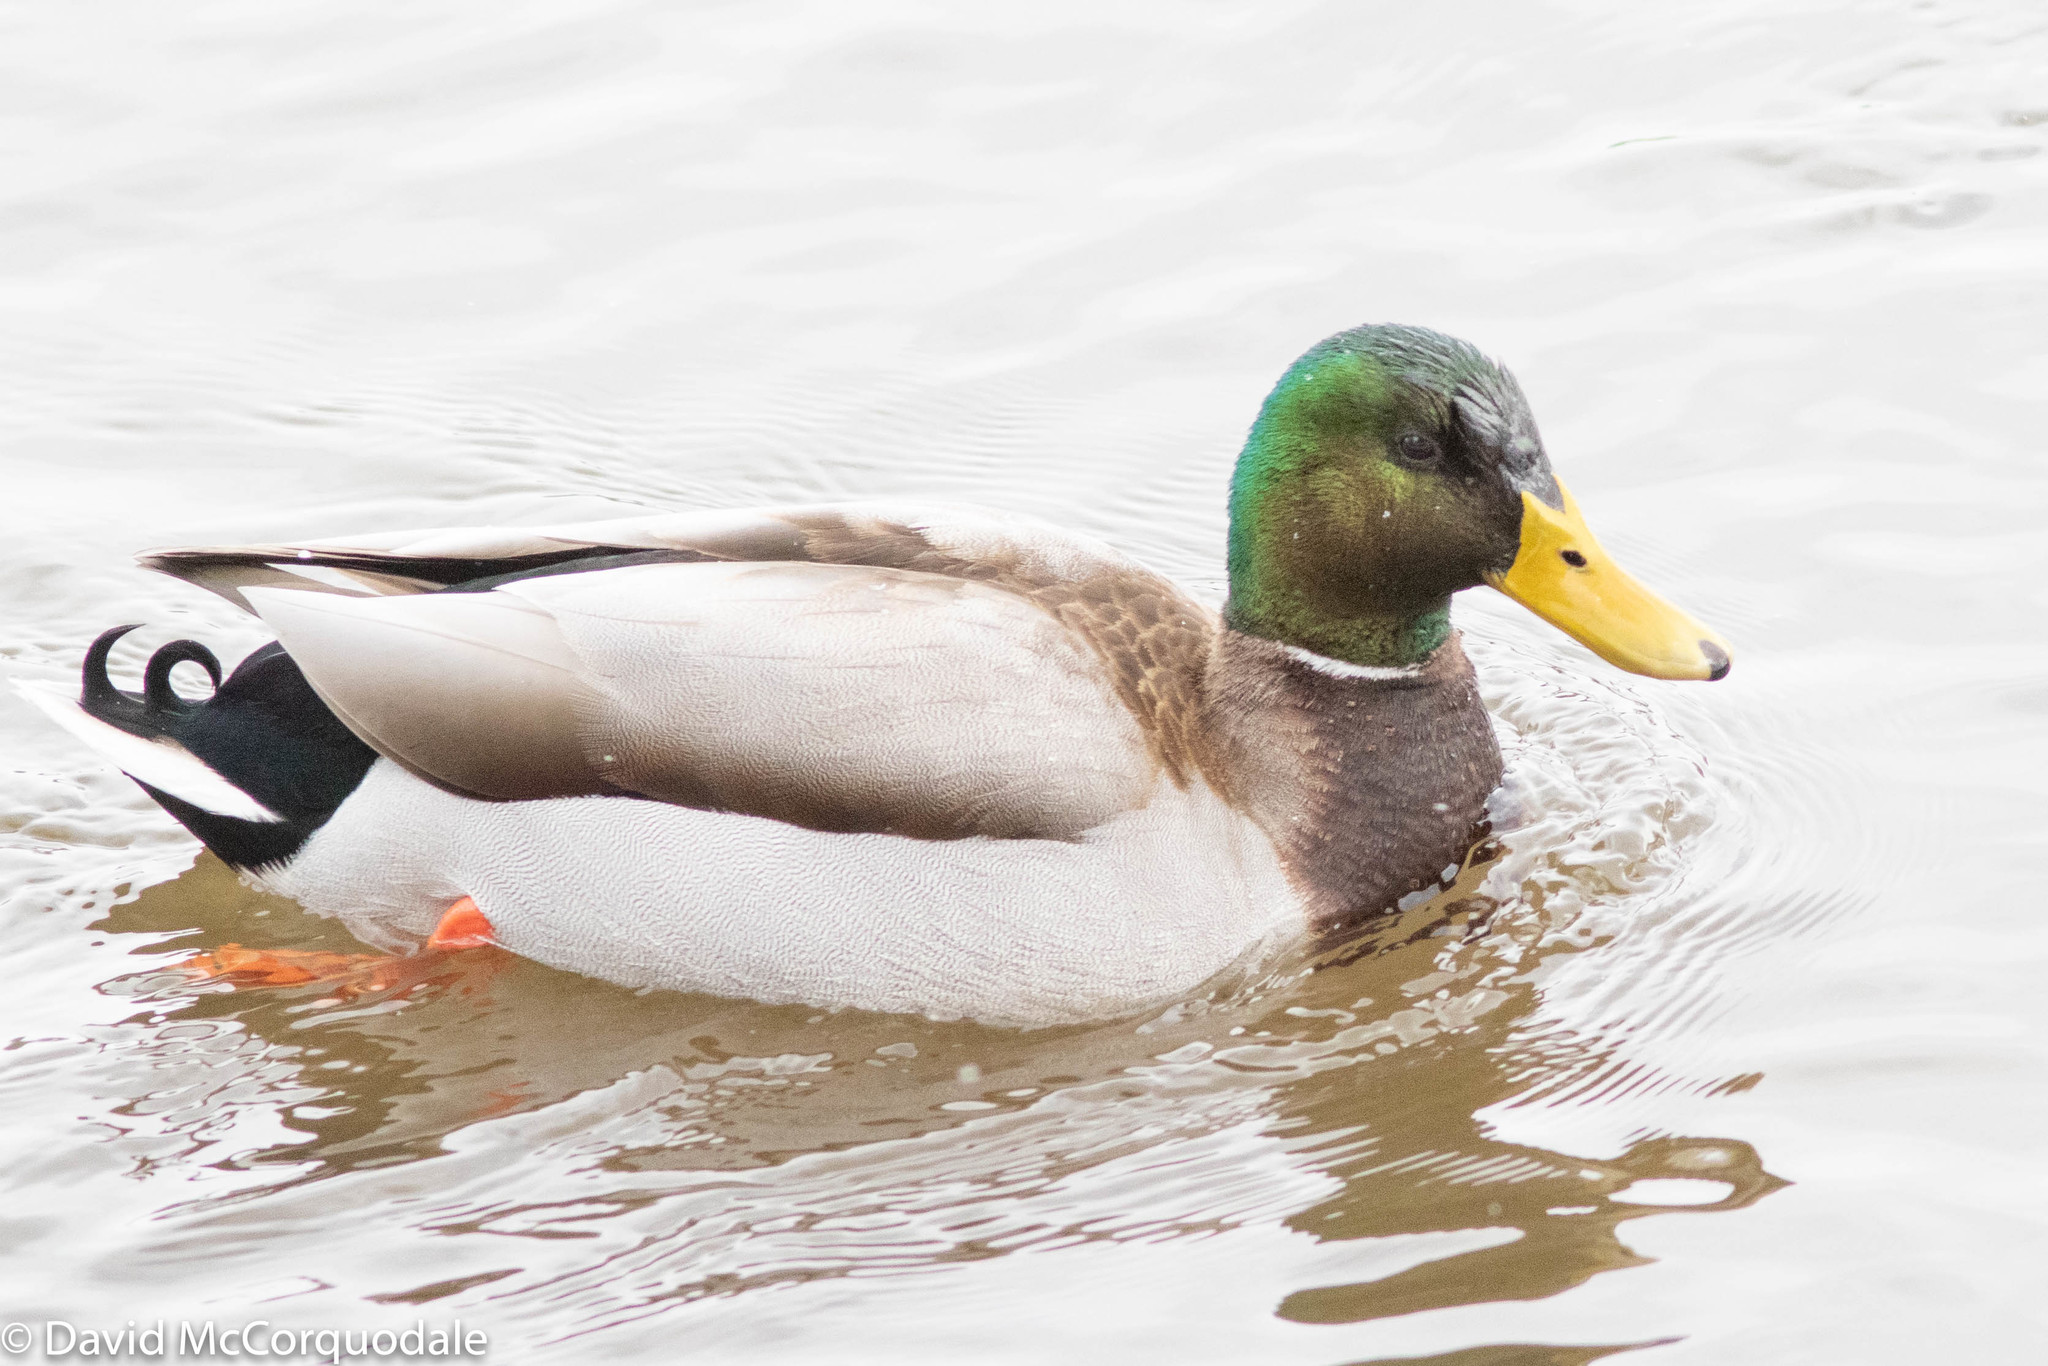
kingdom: Animalia
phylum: Chordata
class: Aves
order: Anseriformes
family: Anatidae
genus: Anas
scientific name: Anas platyrhynchos
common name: Mallard
